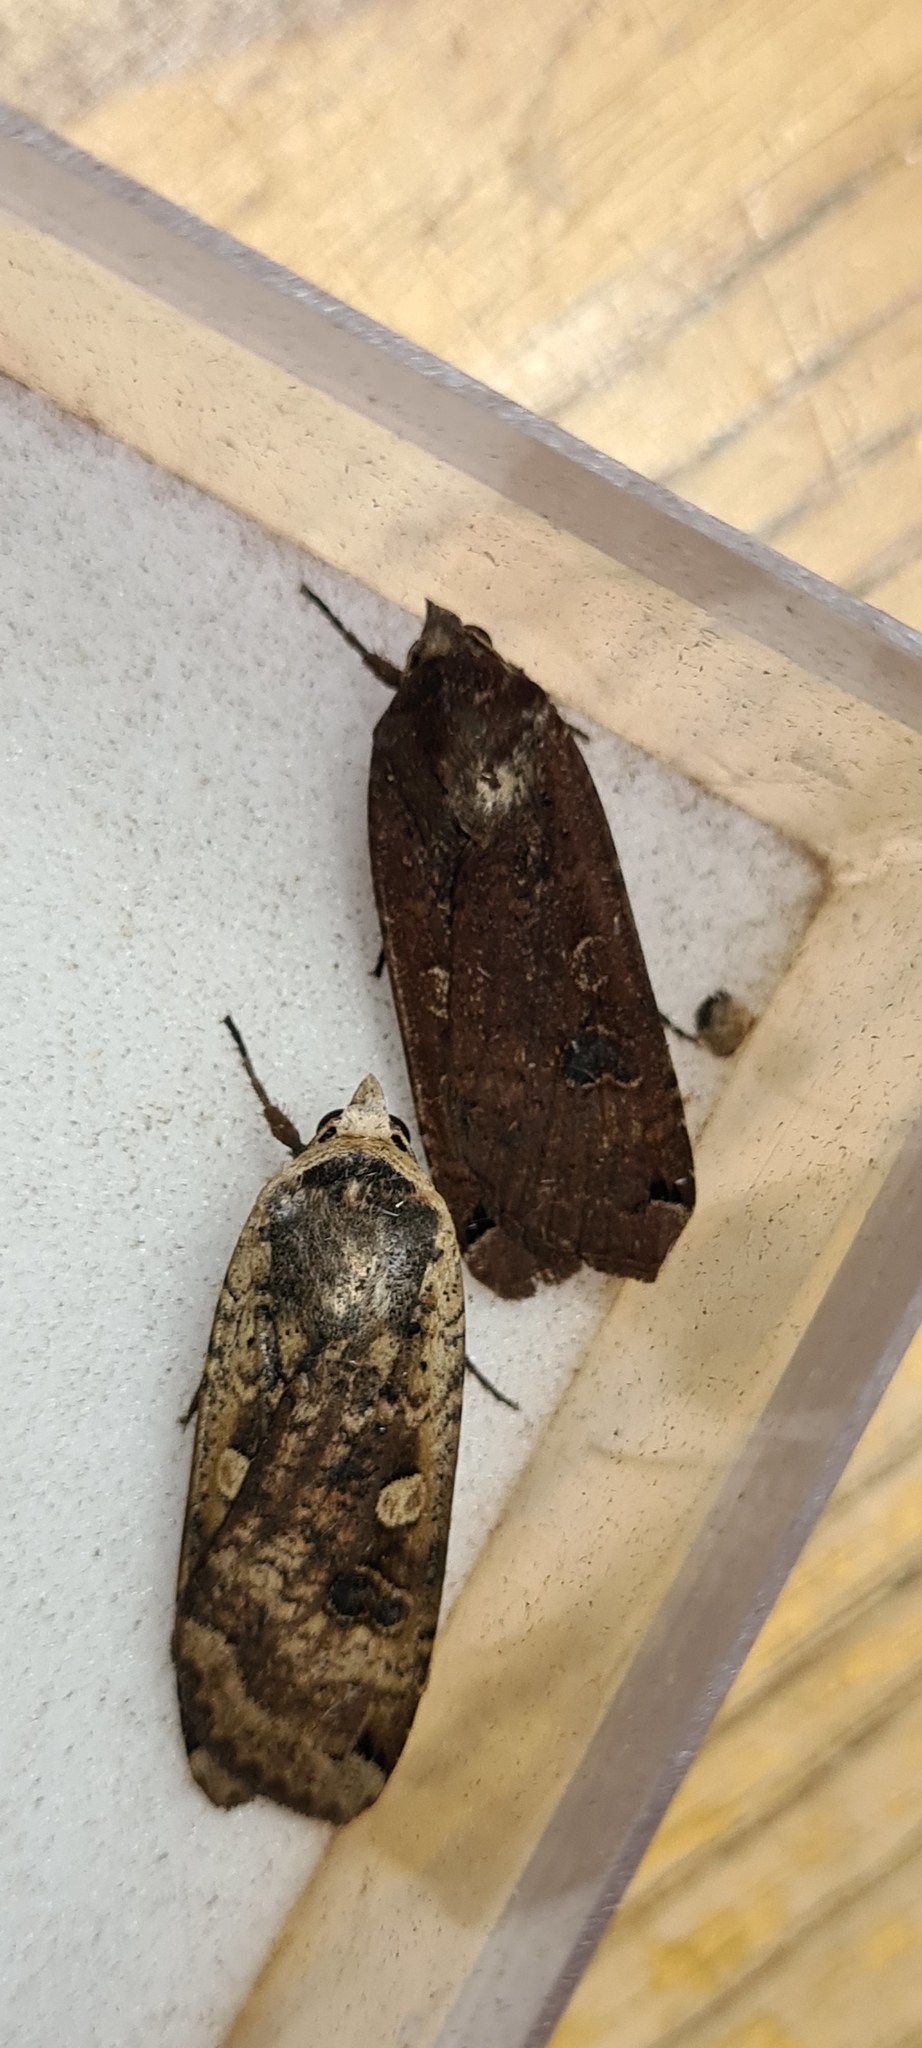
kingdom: Animalia
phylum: Arthropoda
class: Insecta
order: Lepidoptera
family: Noctuidae
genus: Noctua
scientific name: Noctua pronuba
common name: Large yellow underwing
